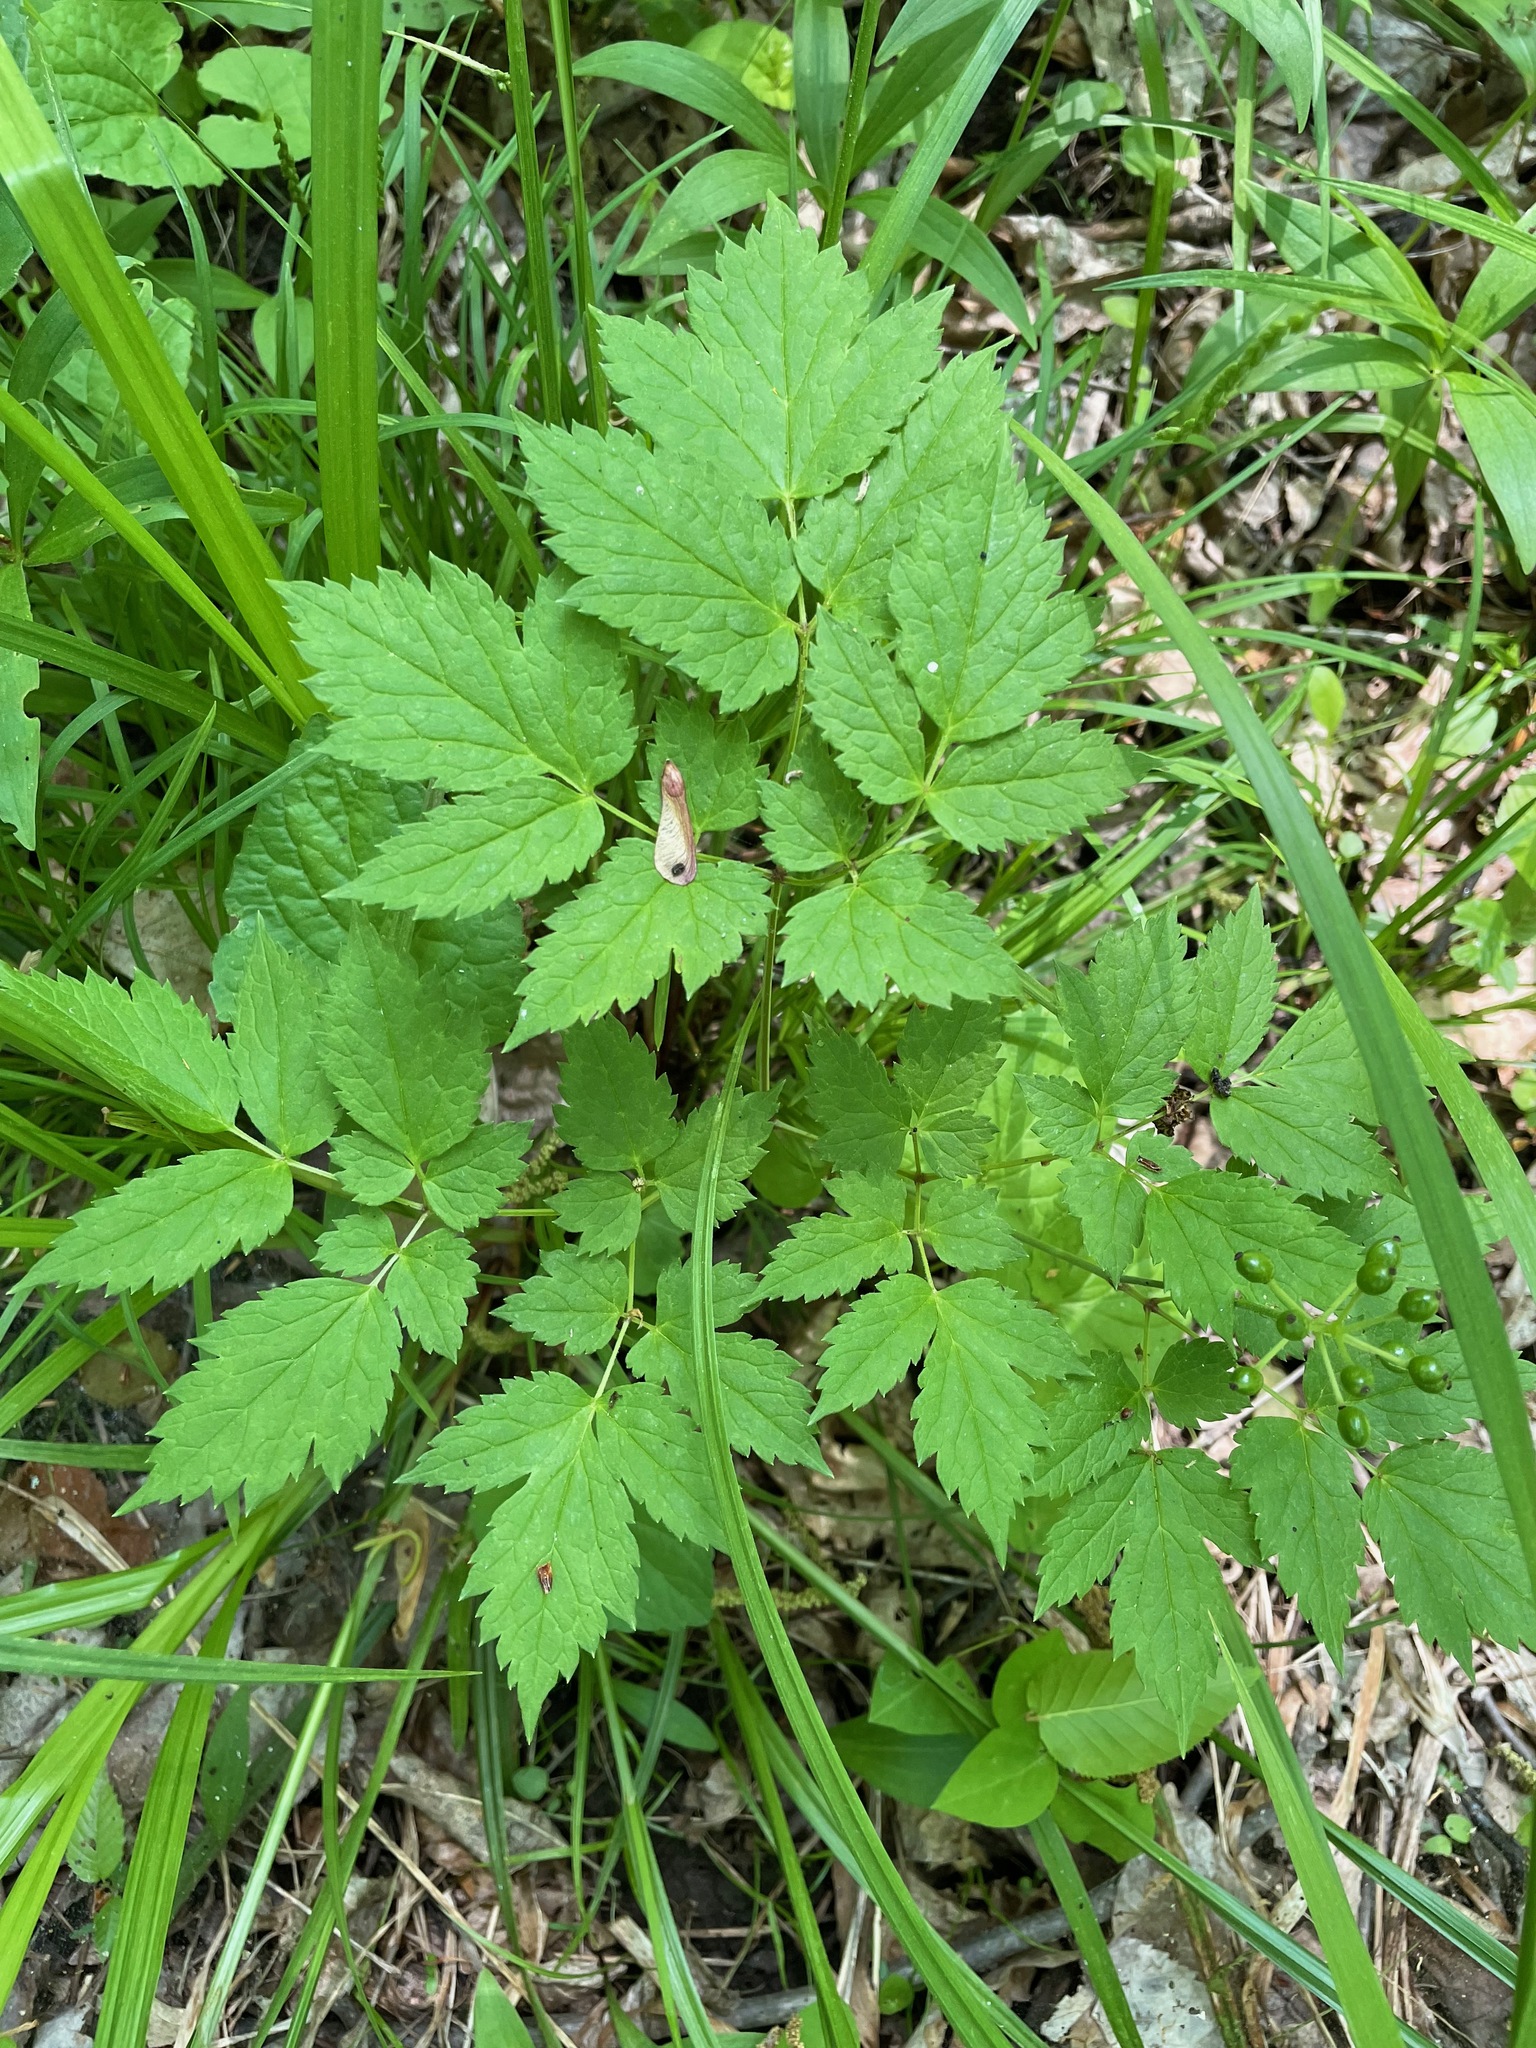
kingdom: Plantae
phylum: Tracheophyta
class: Magnoliopsida
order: Ranunculales
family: Ranunculaceae
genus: Actaea
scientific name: Actaea rubra
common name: Red baneberry
